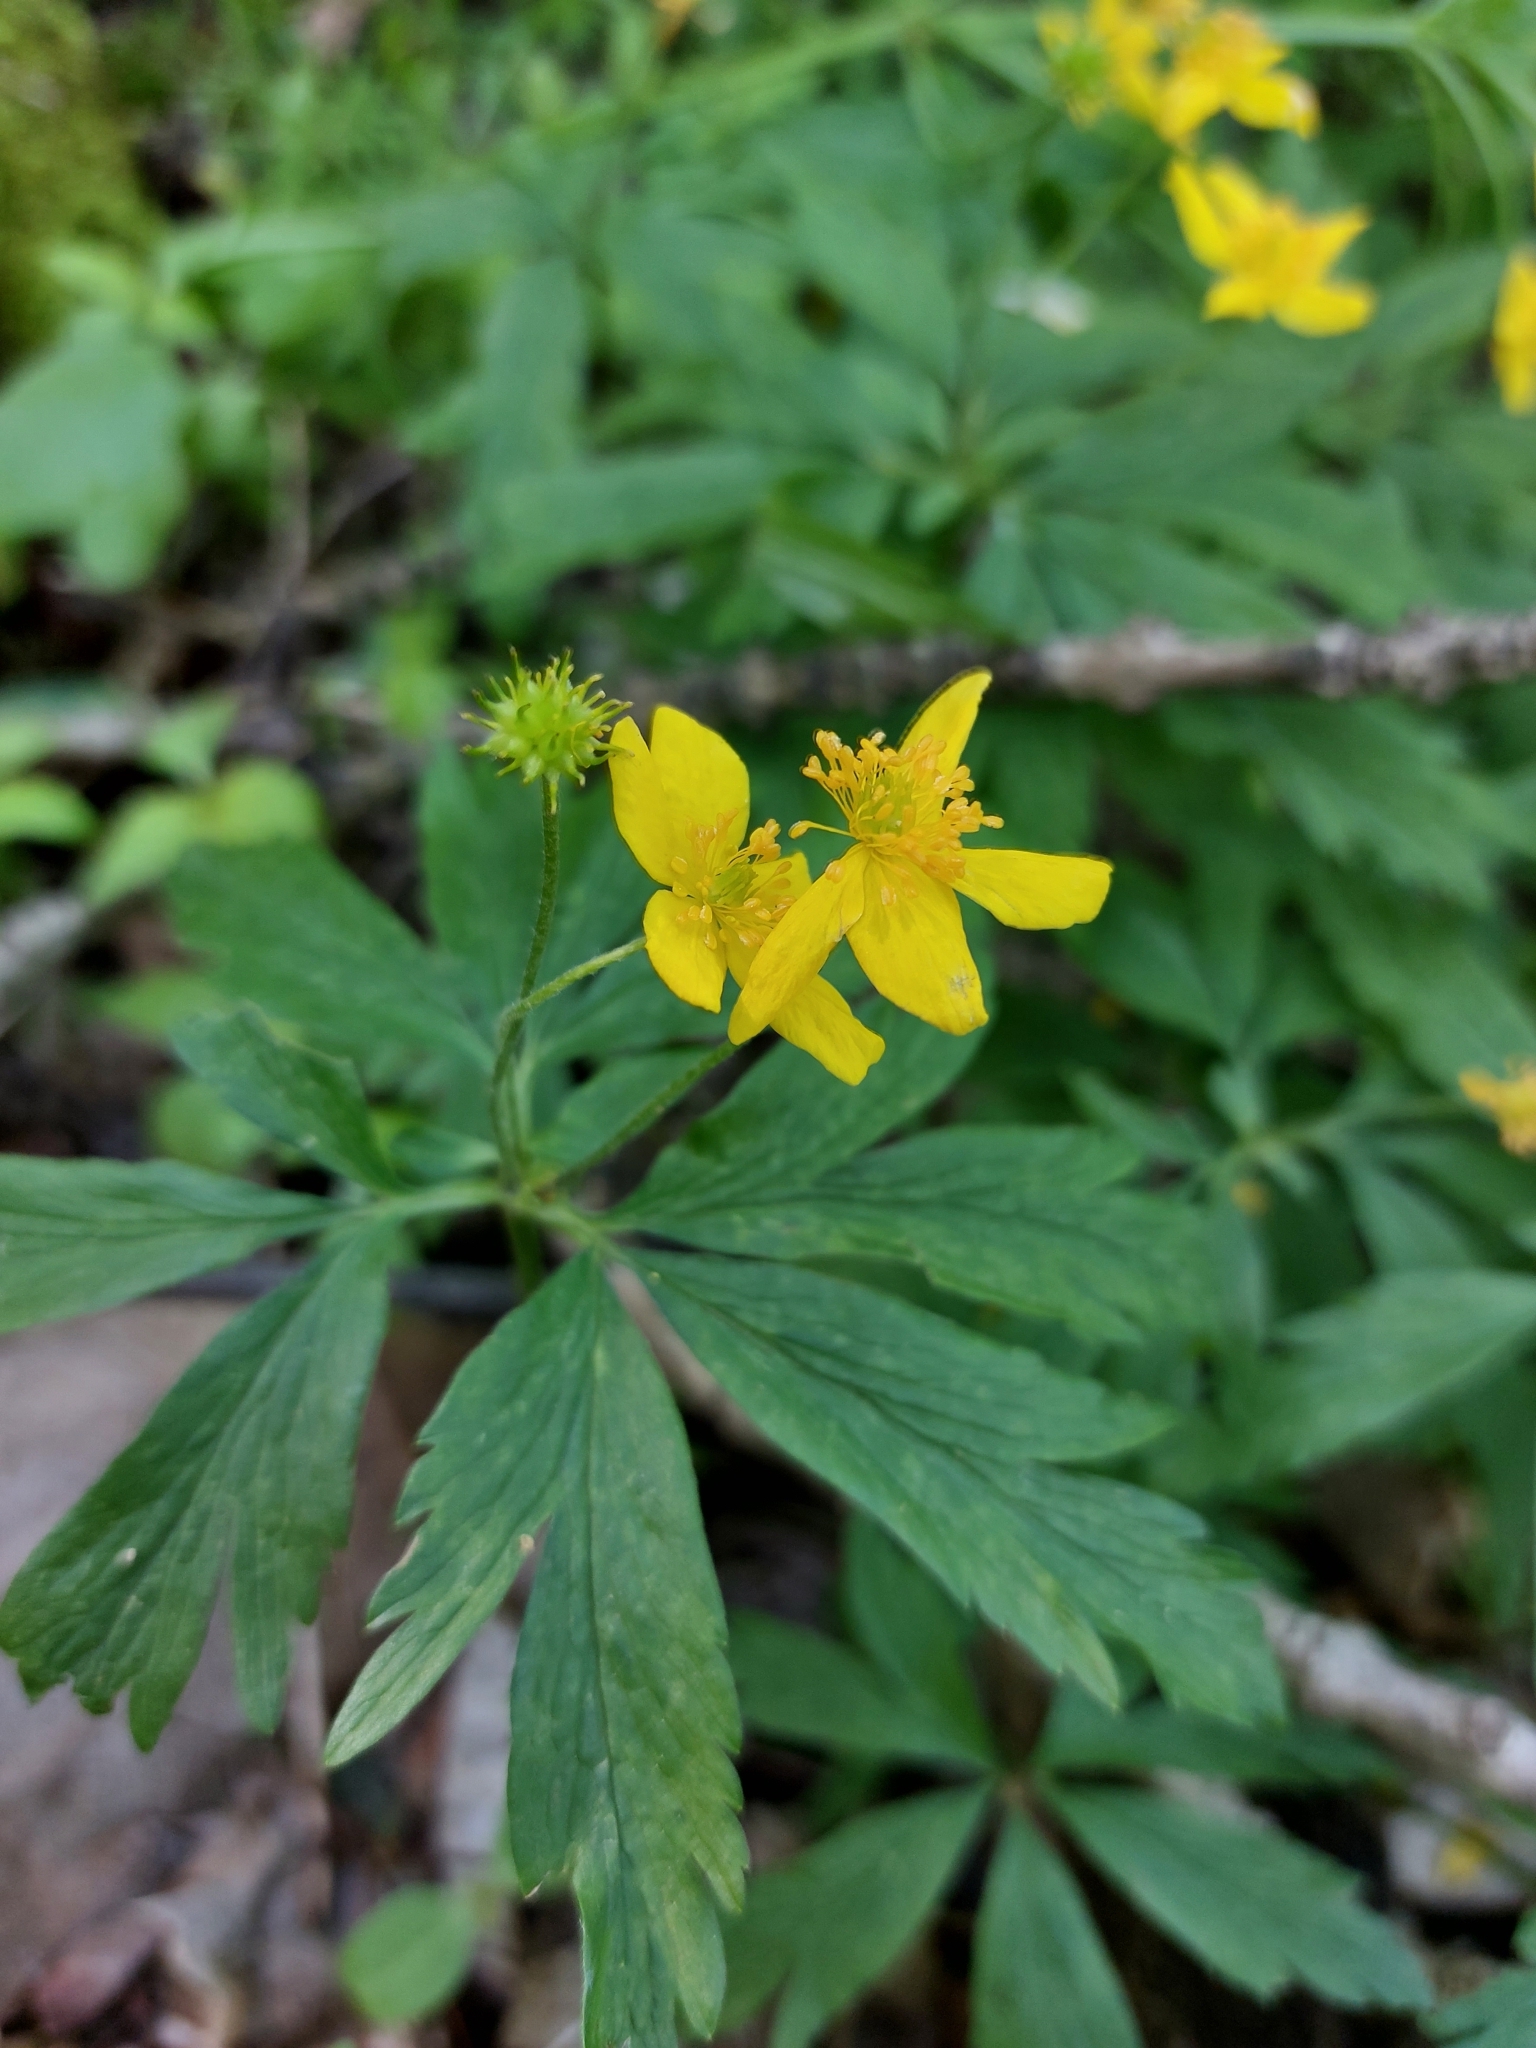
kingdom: Plantae
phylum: Tracheophyta
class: Magnoliopsida
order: Ranunculales
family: Ranunculaceae
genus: Anemone
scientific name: Anemone ranunculoides
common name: Yellow anemone
